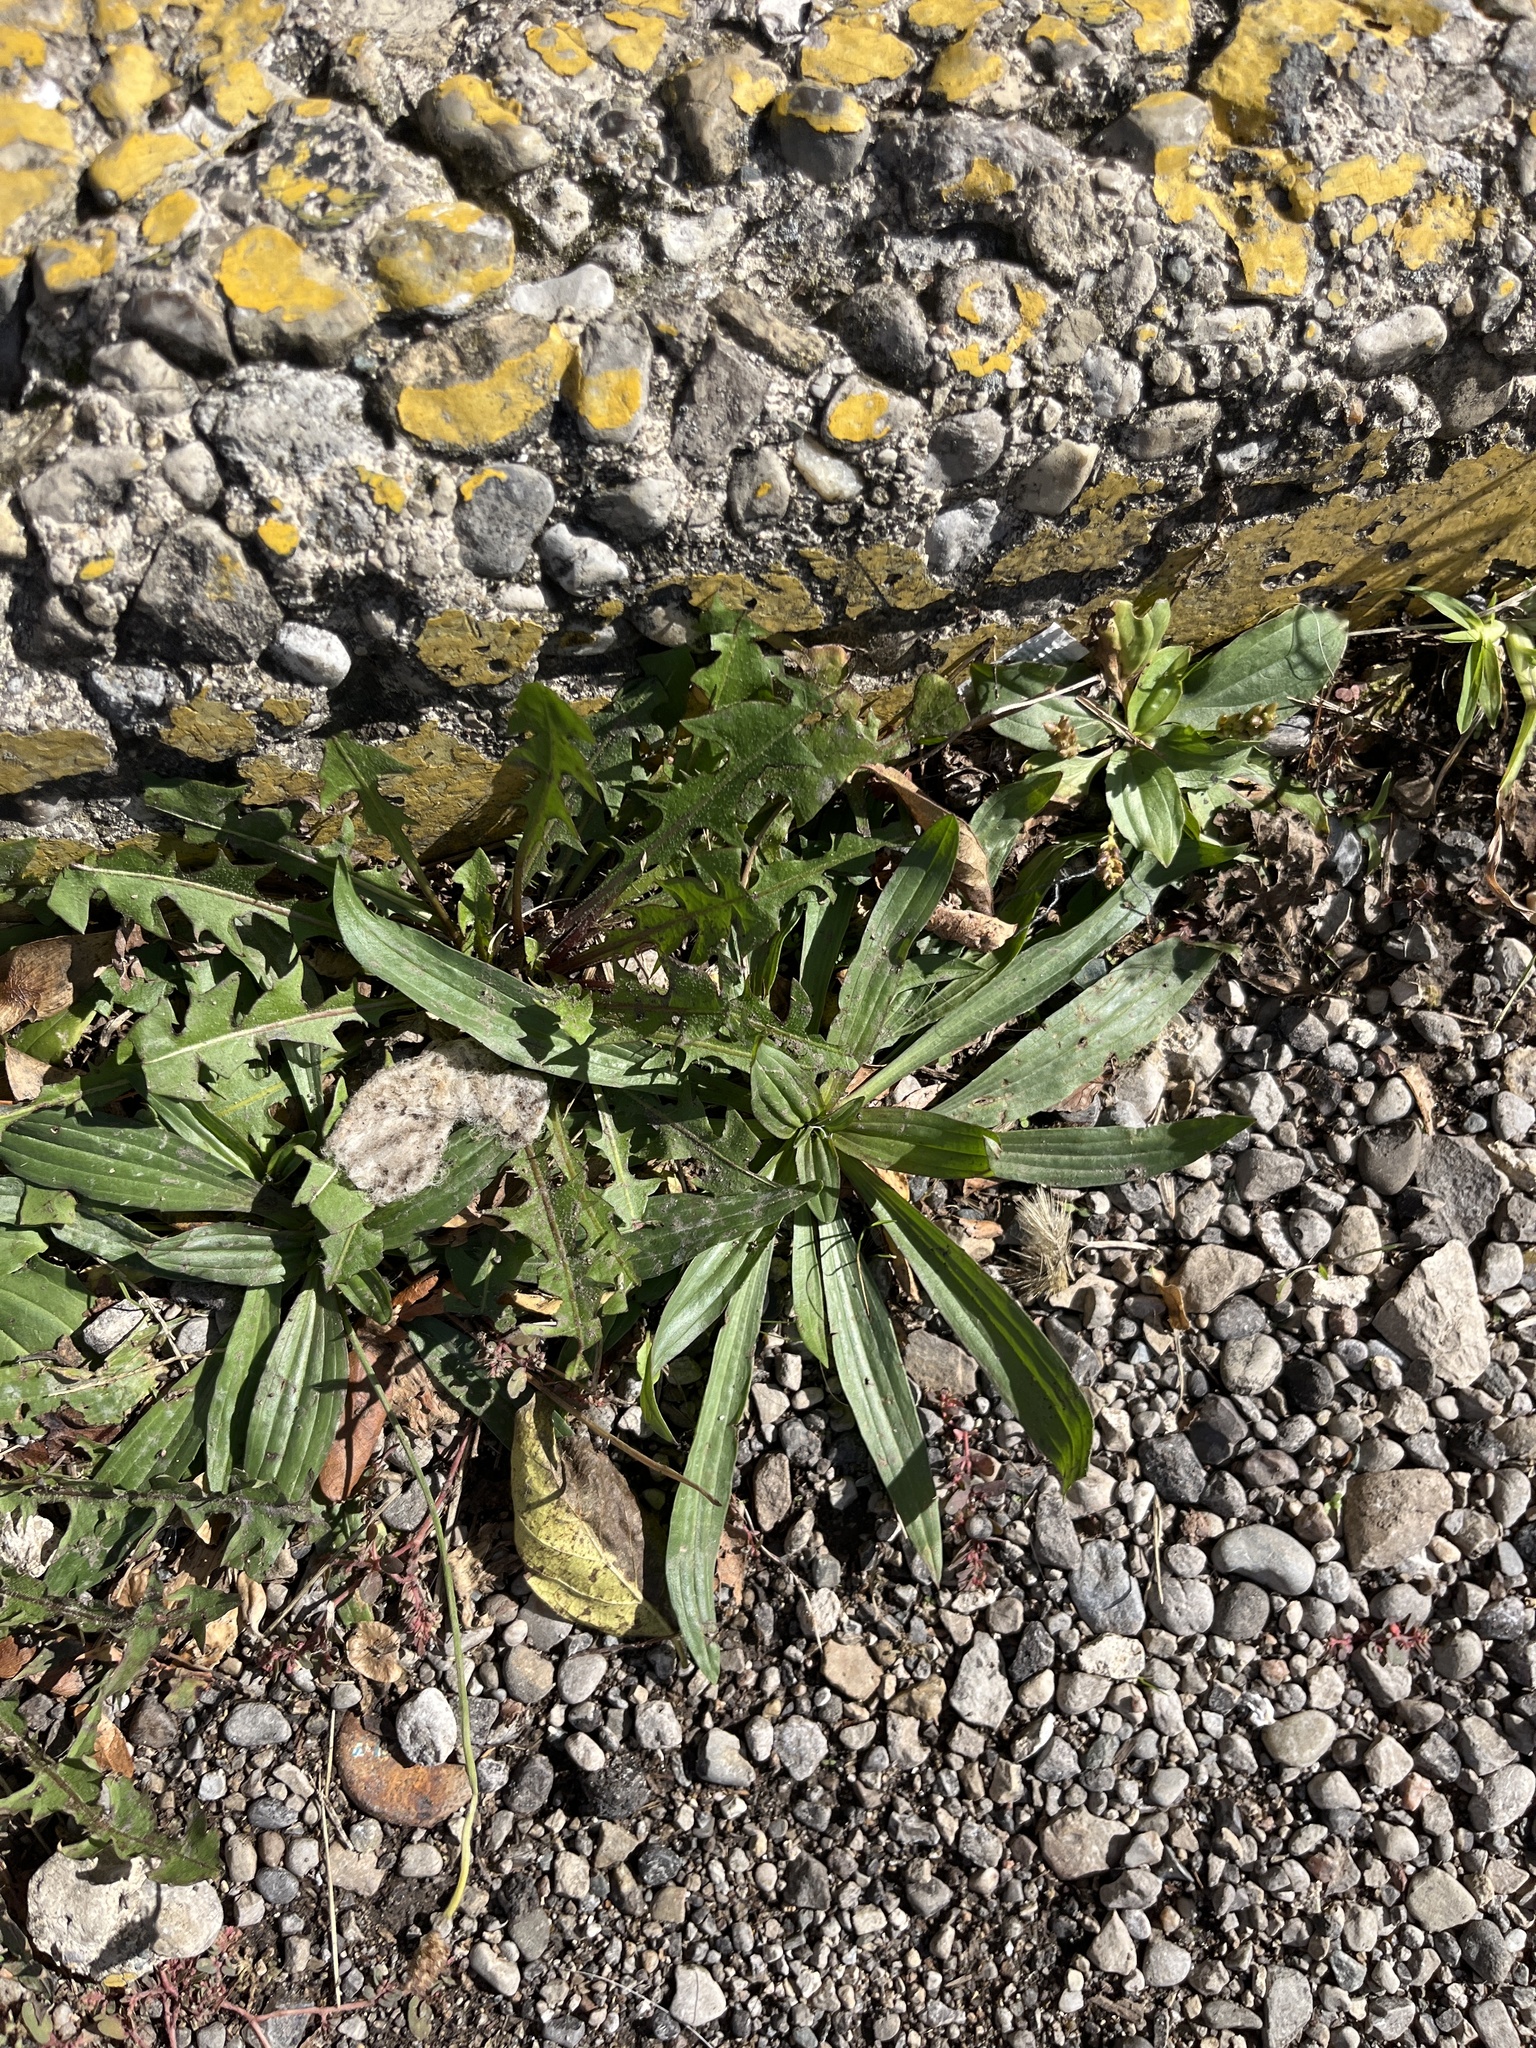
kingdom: Plantae
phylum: Tracheophyta
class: Magnoliopsida
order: Lamiales
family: Plantaginaceae
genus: Plantago
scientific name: Plantago lanceolata
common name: Ribwort plantain
